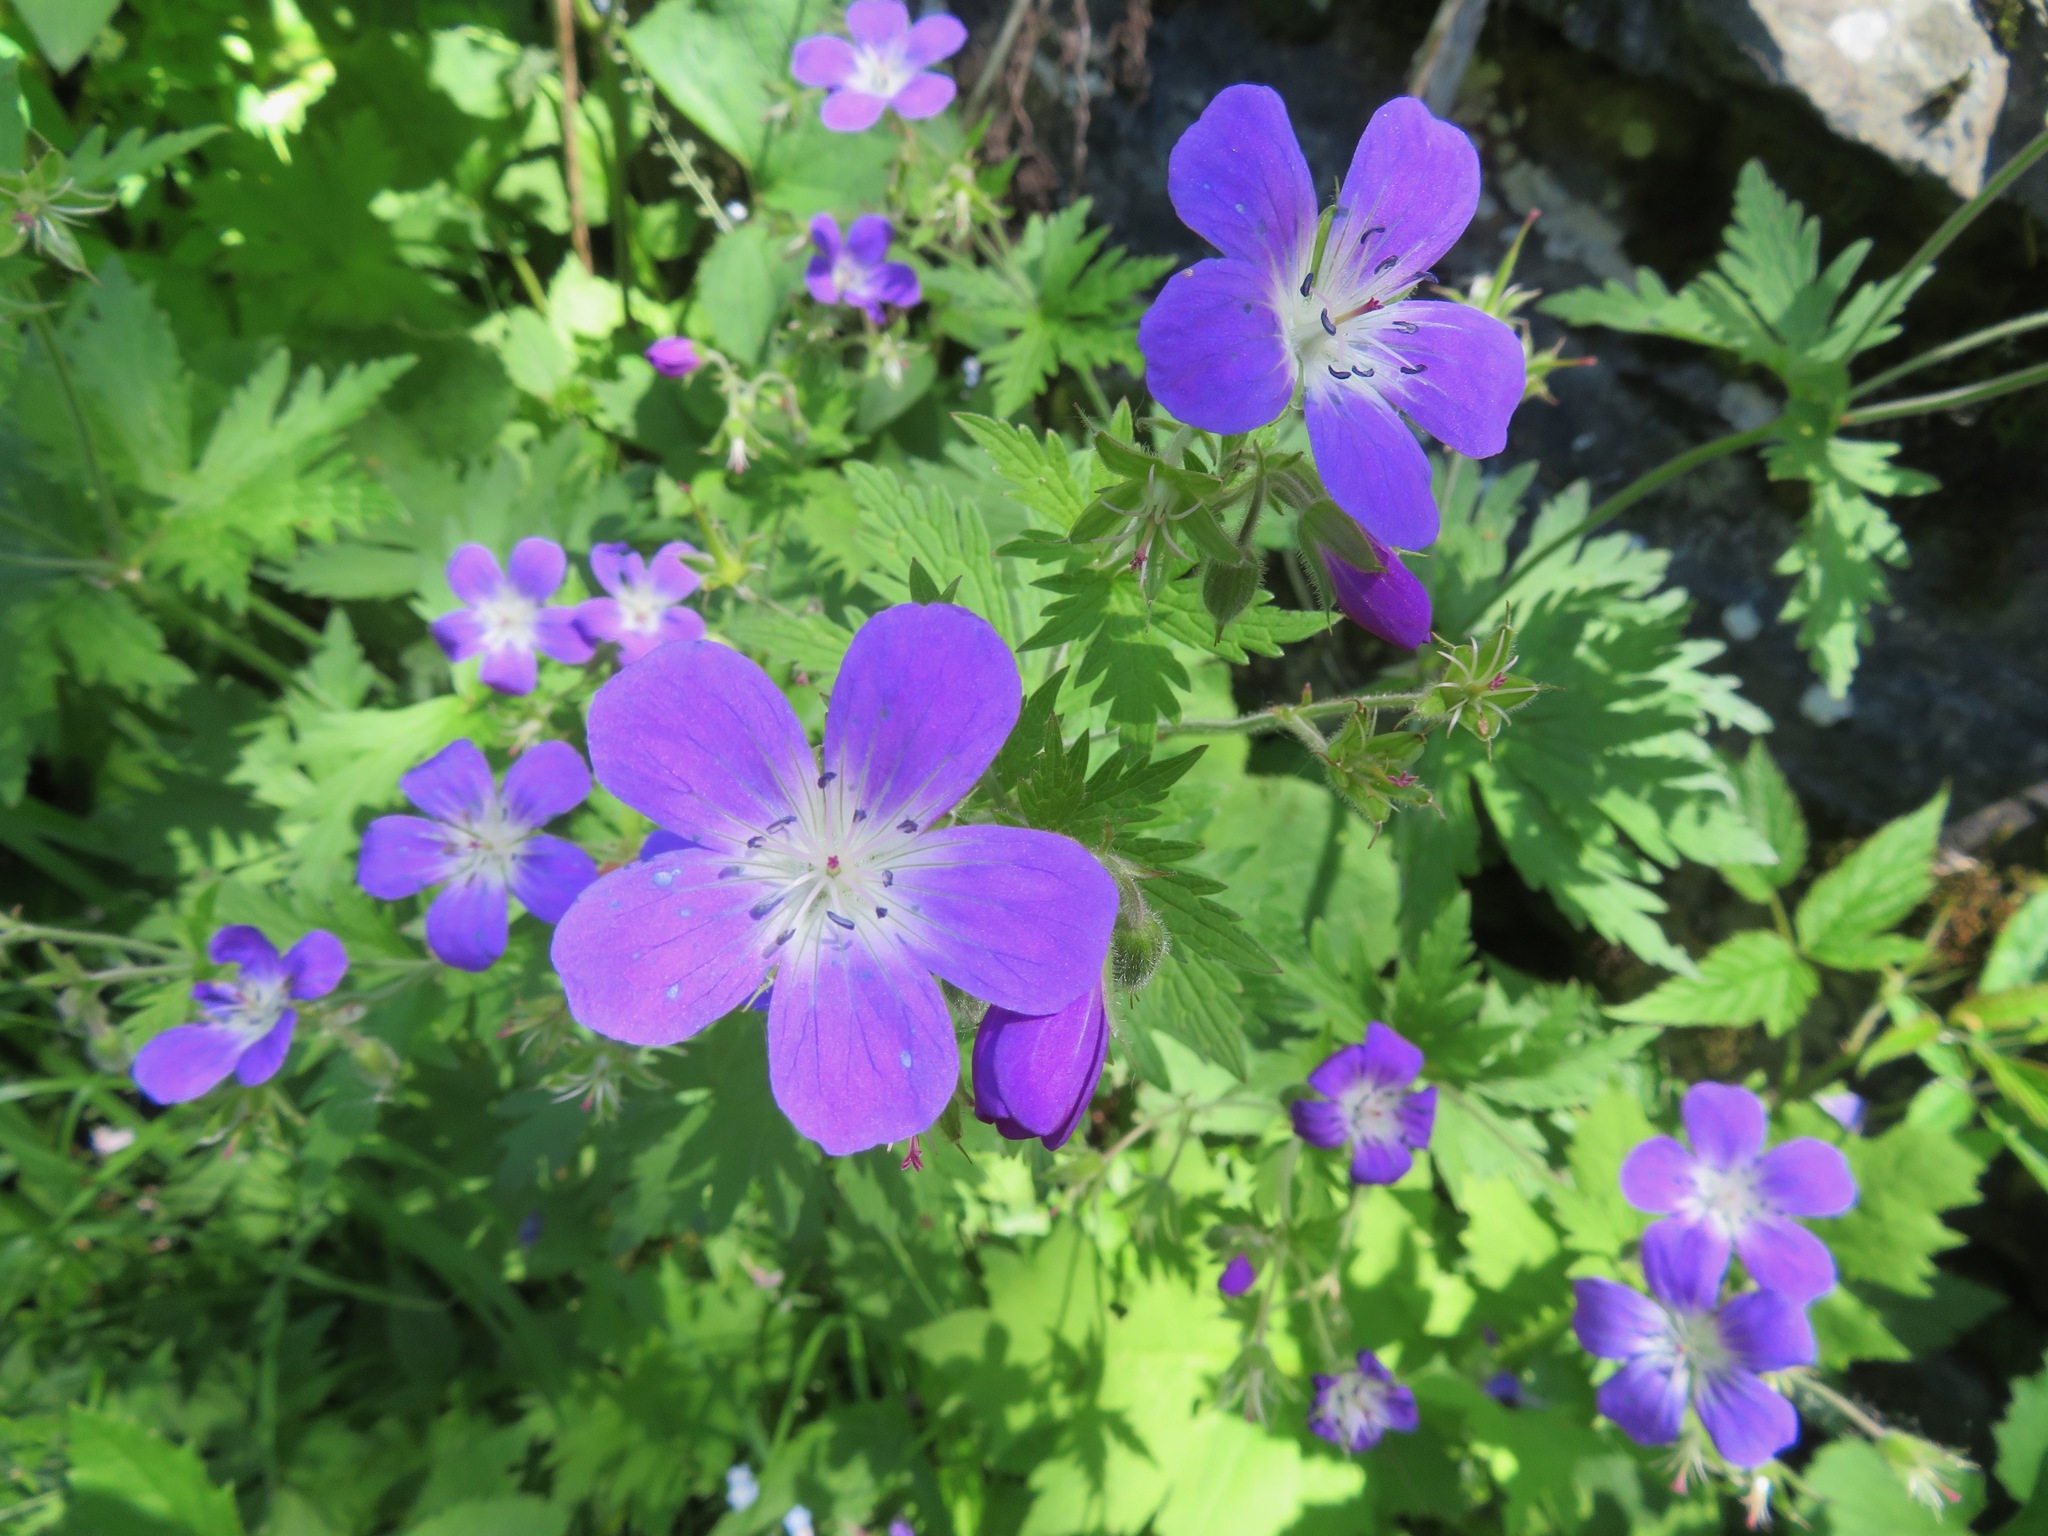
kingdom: Plantae
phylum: Tracheophyta
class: Magnoliopsida
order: Geraniales
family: Geraniaceae
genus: Geranium
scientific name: Geranium sylvaticum
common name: Wood crane's-bill
